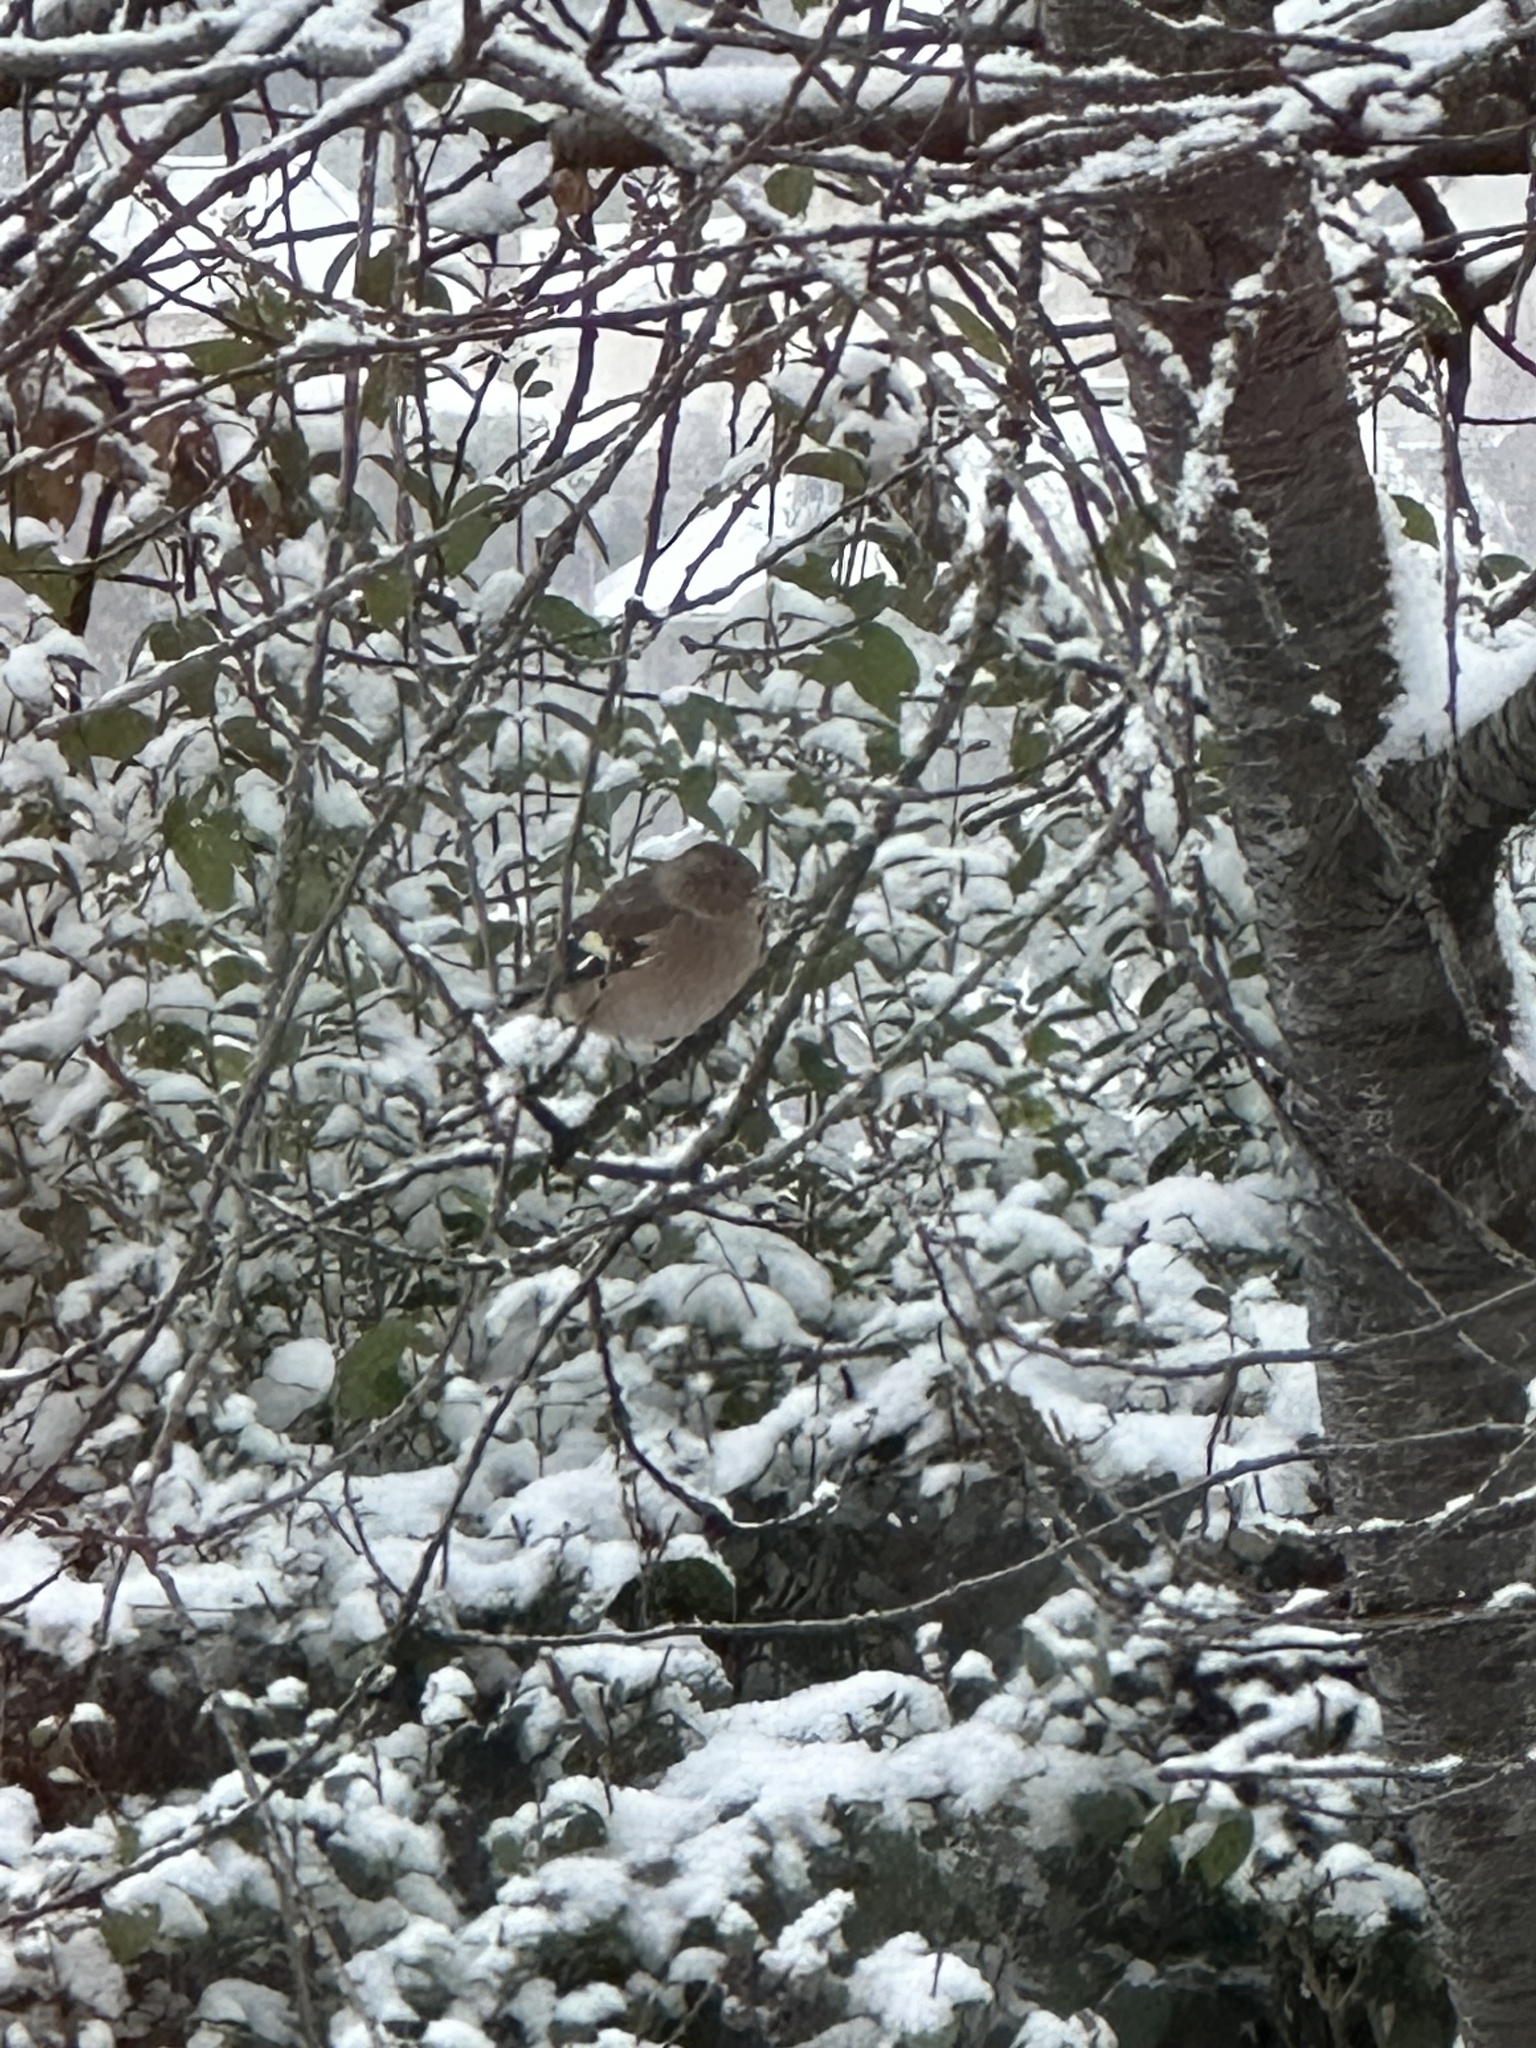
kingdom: Animalia
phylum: Chordata
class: Aves
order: Passeriformes
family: Fringillidae
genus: Fringilla
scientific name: Fringilla coelebs
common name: Common chaffinch
